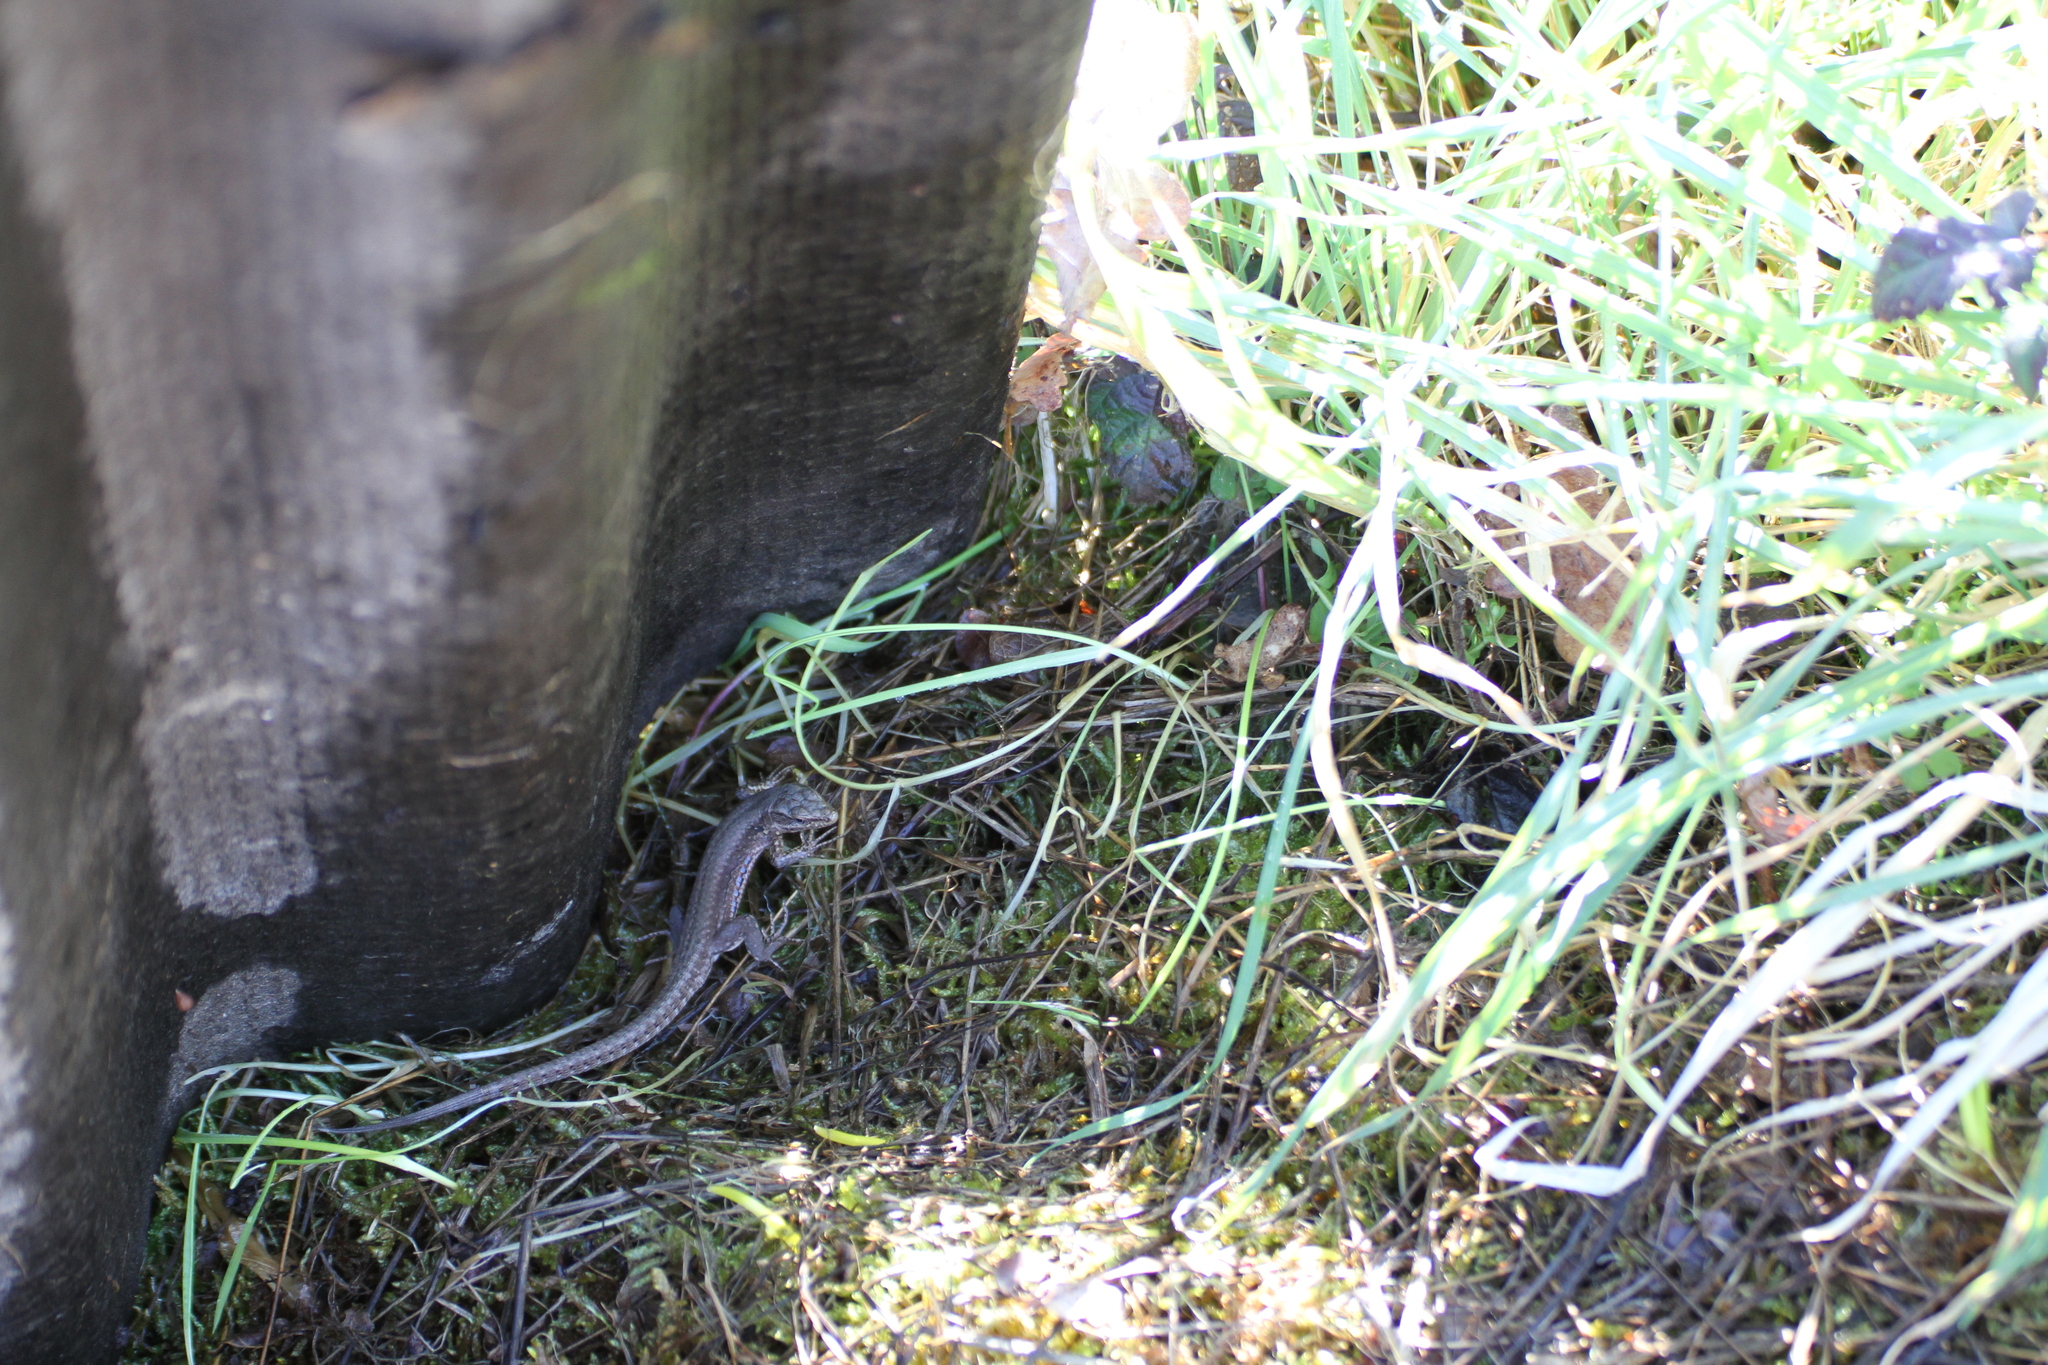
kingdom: Animalia
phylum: Chordata
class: Squamata
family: Lacertidae
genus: Podarcis
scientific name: Podarcis muralis
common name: Common wall lizard
